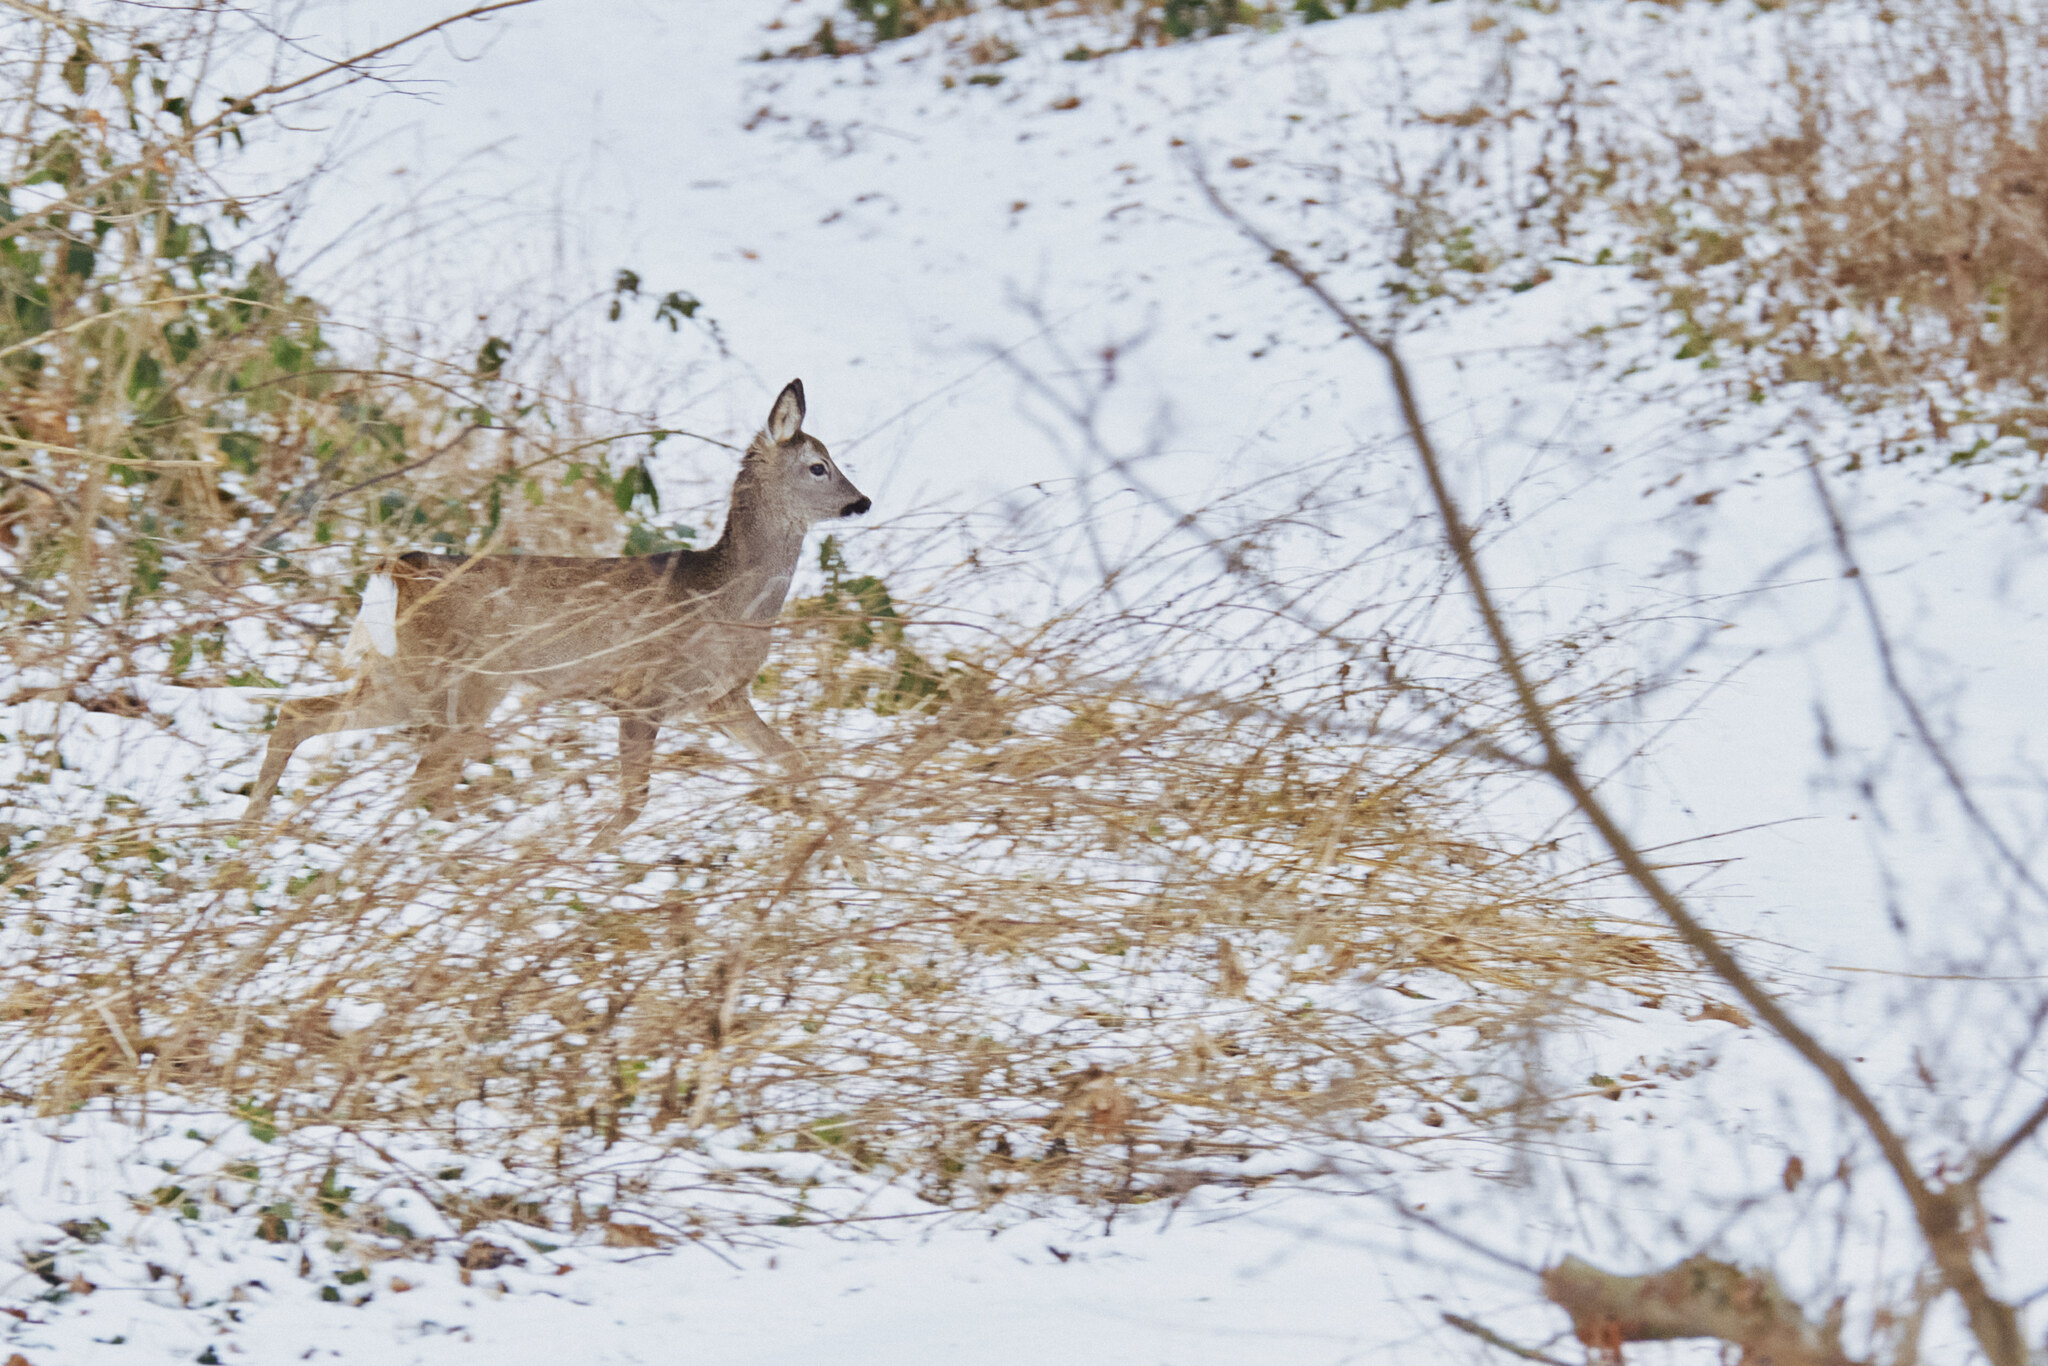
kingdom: Animalia
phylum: Chordata
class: Mammalia
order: Artiodactyla
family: Cervidae
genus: Capreolus
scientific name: Capreolus capreolus
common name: Western roe deer
